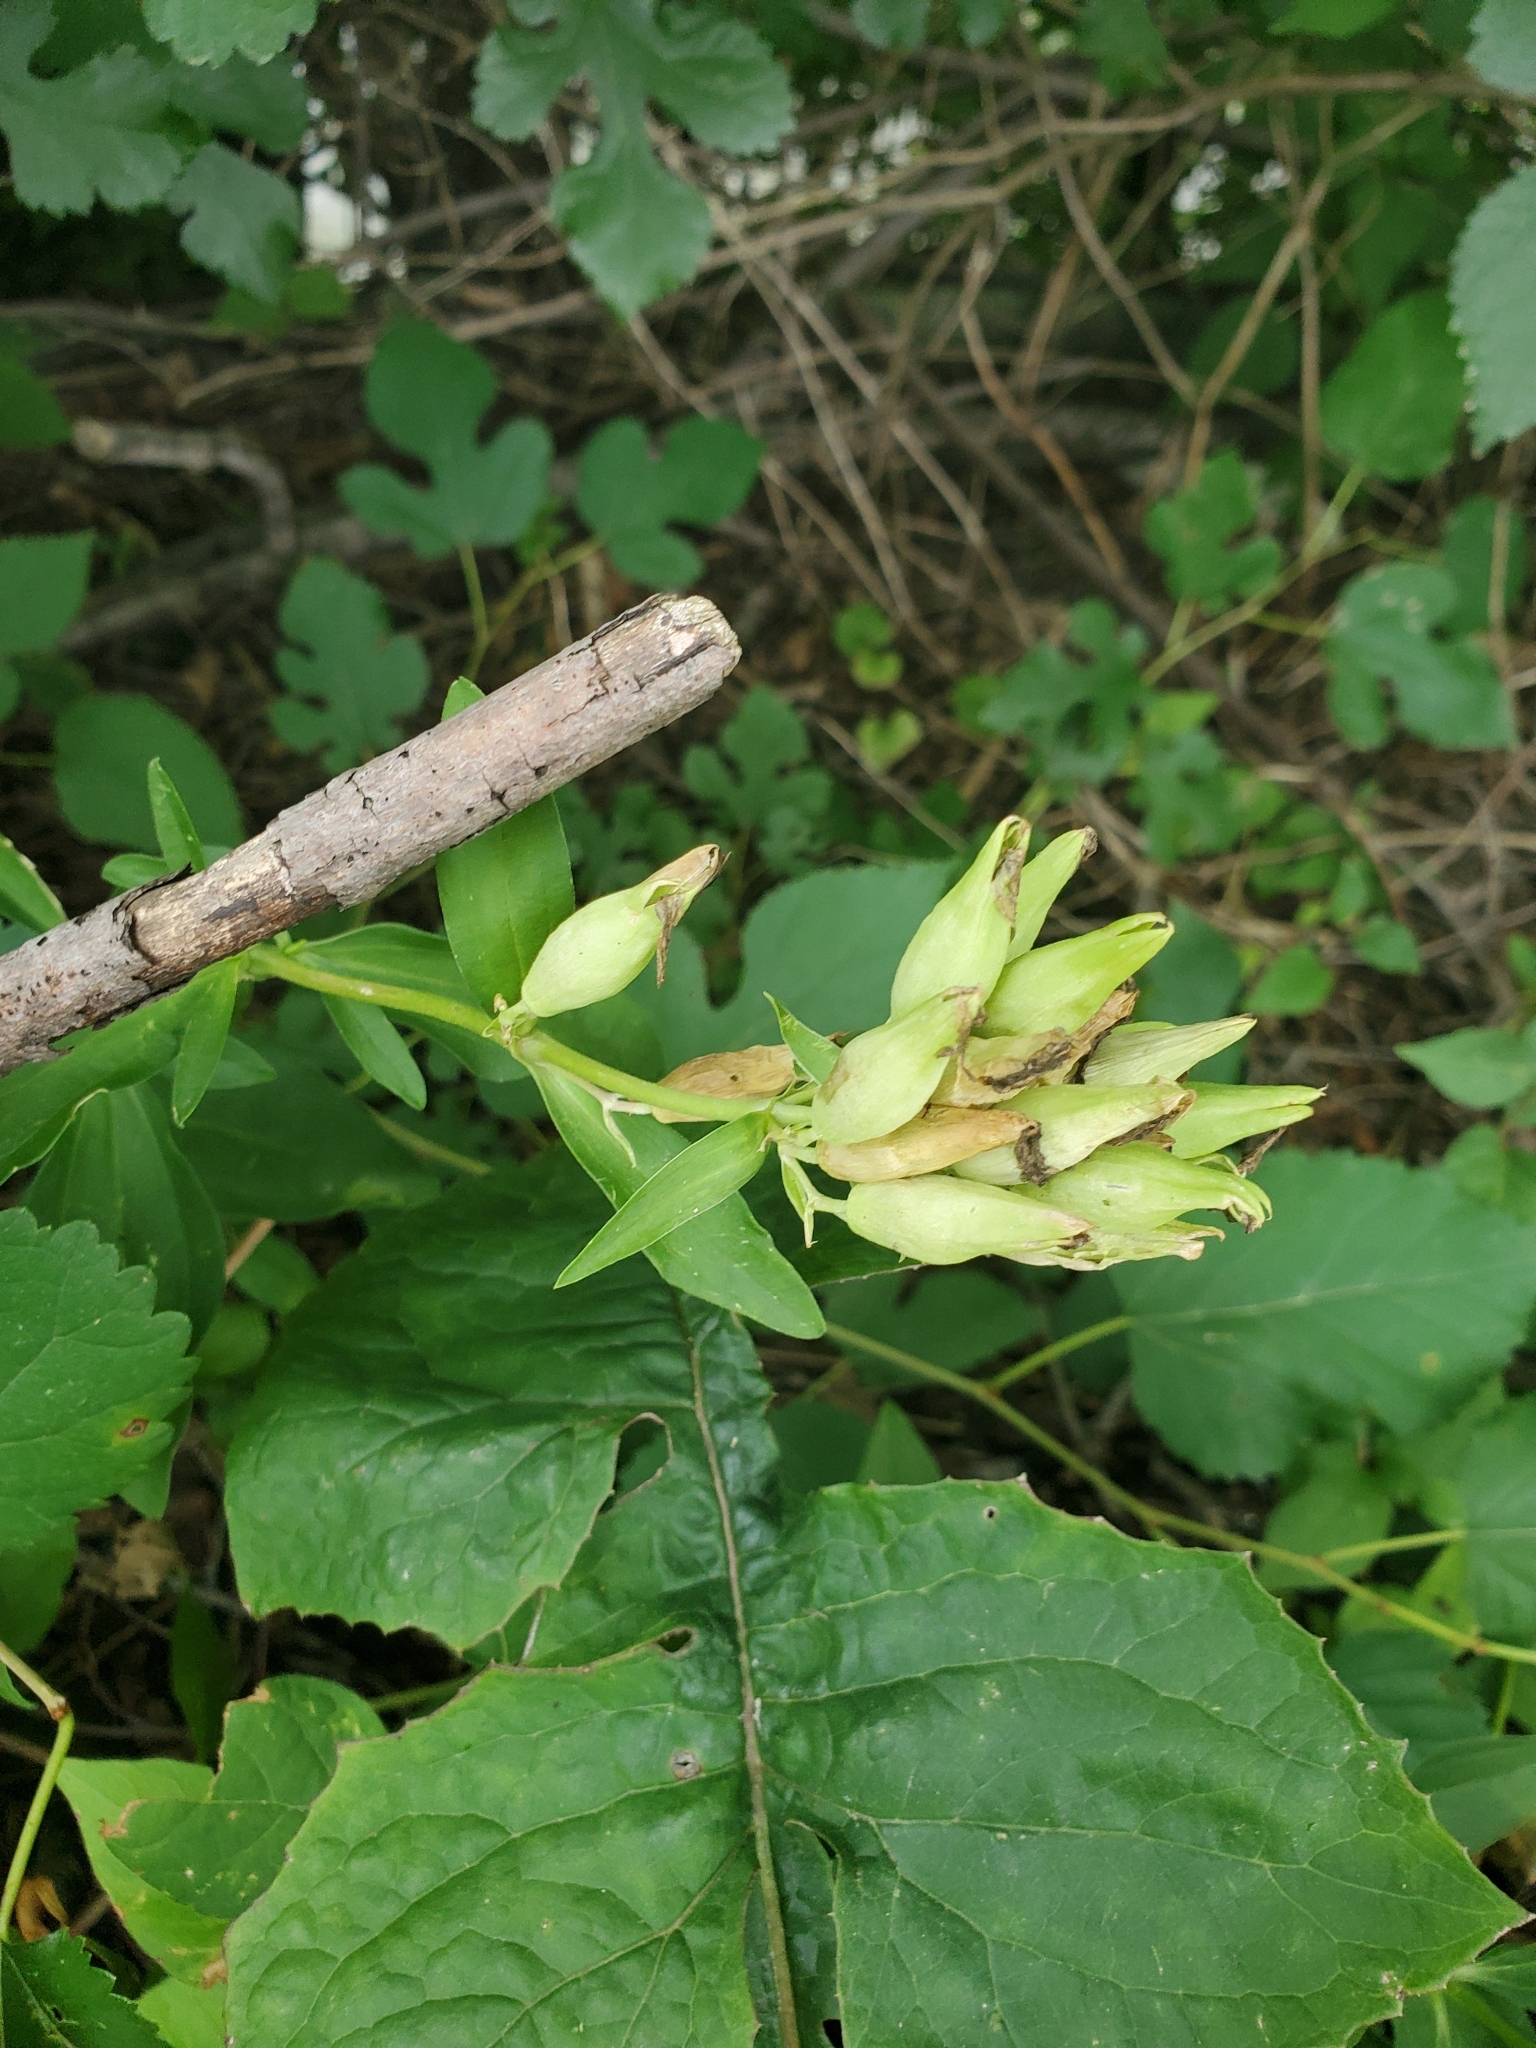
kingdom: Plantae
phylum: Tracheophyta
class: Magnoliopsida
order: Caryophyllales
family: Caryophyllaceae
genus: Saponaria
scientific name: Saponaria officinalis
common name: Soapwort
